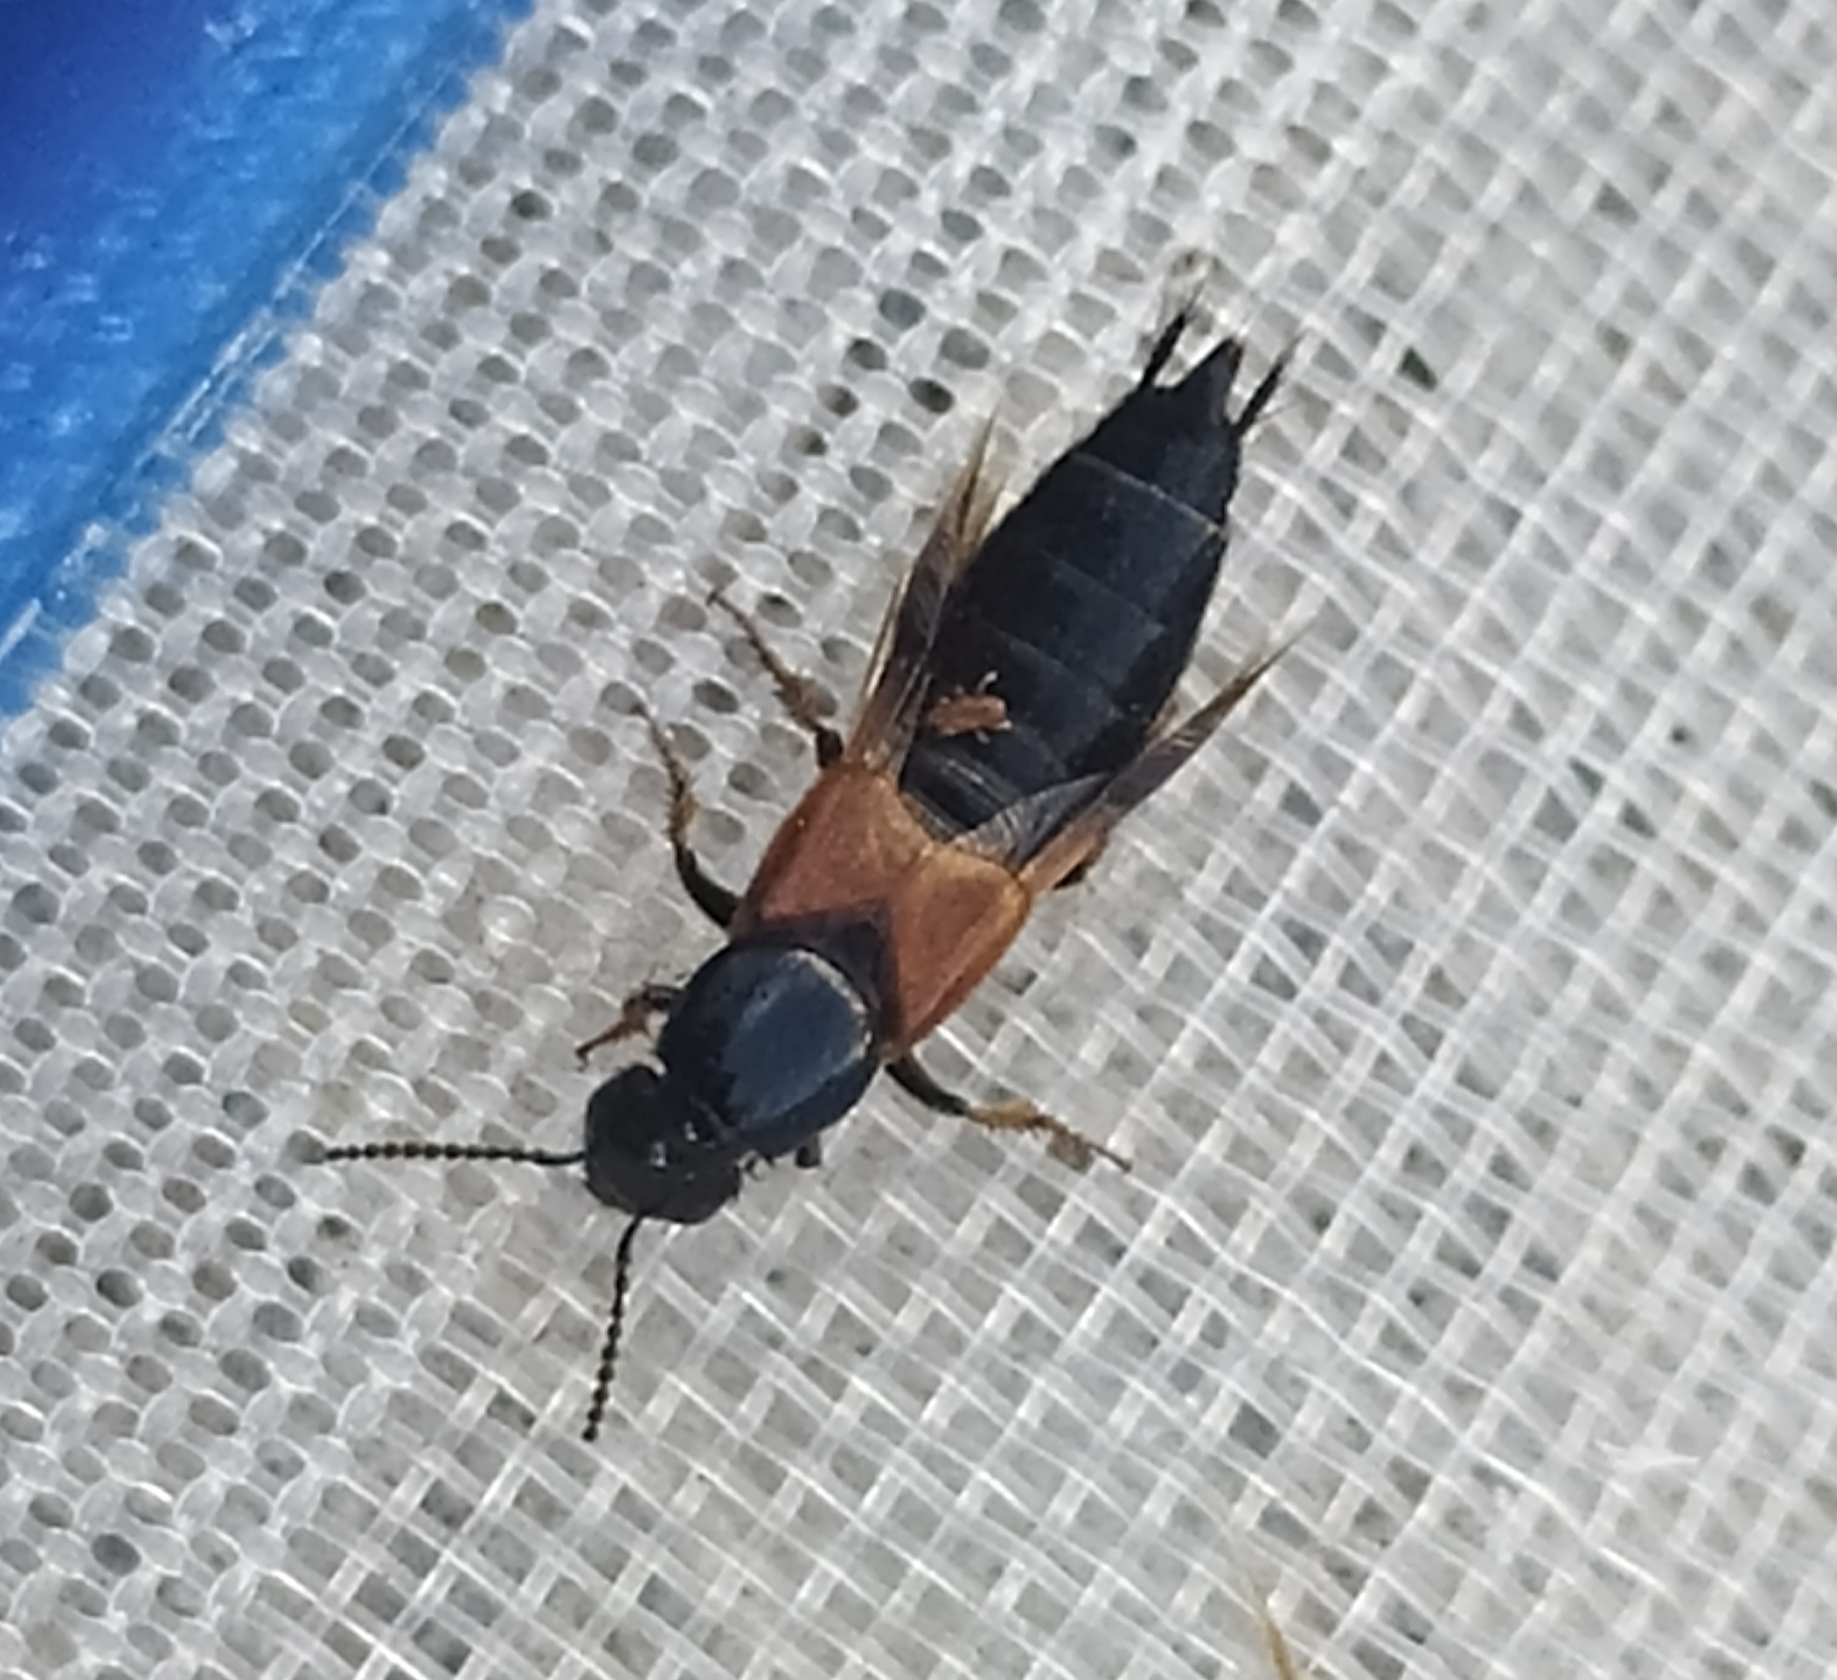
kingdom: Animalia
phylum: Arthropoda
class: Insecta
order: Coleoptera
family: Staphylinidae
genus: Philonthus
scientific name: Philonthus spinipes
